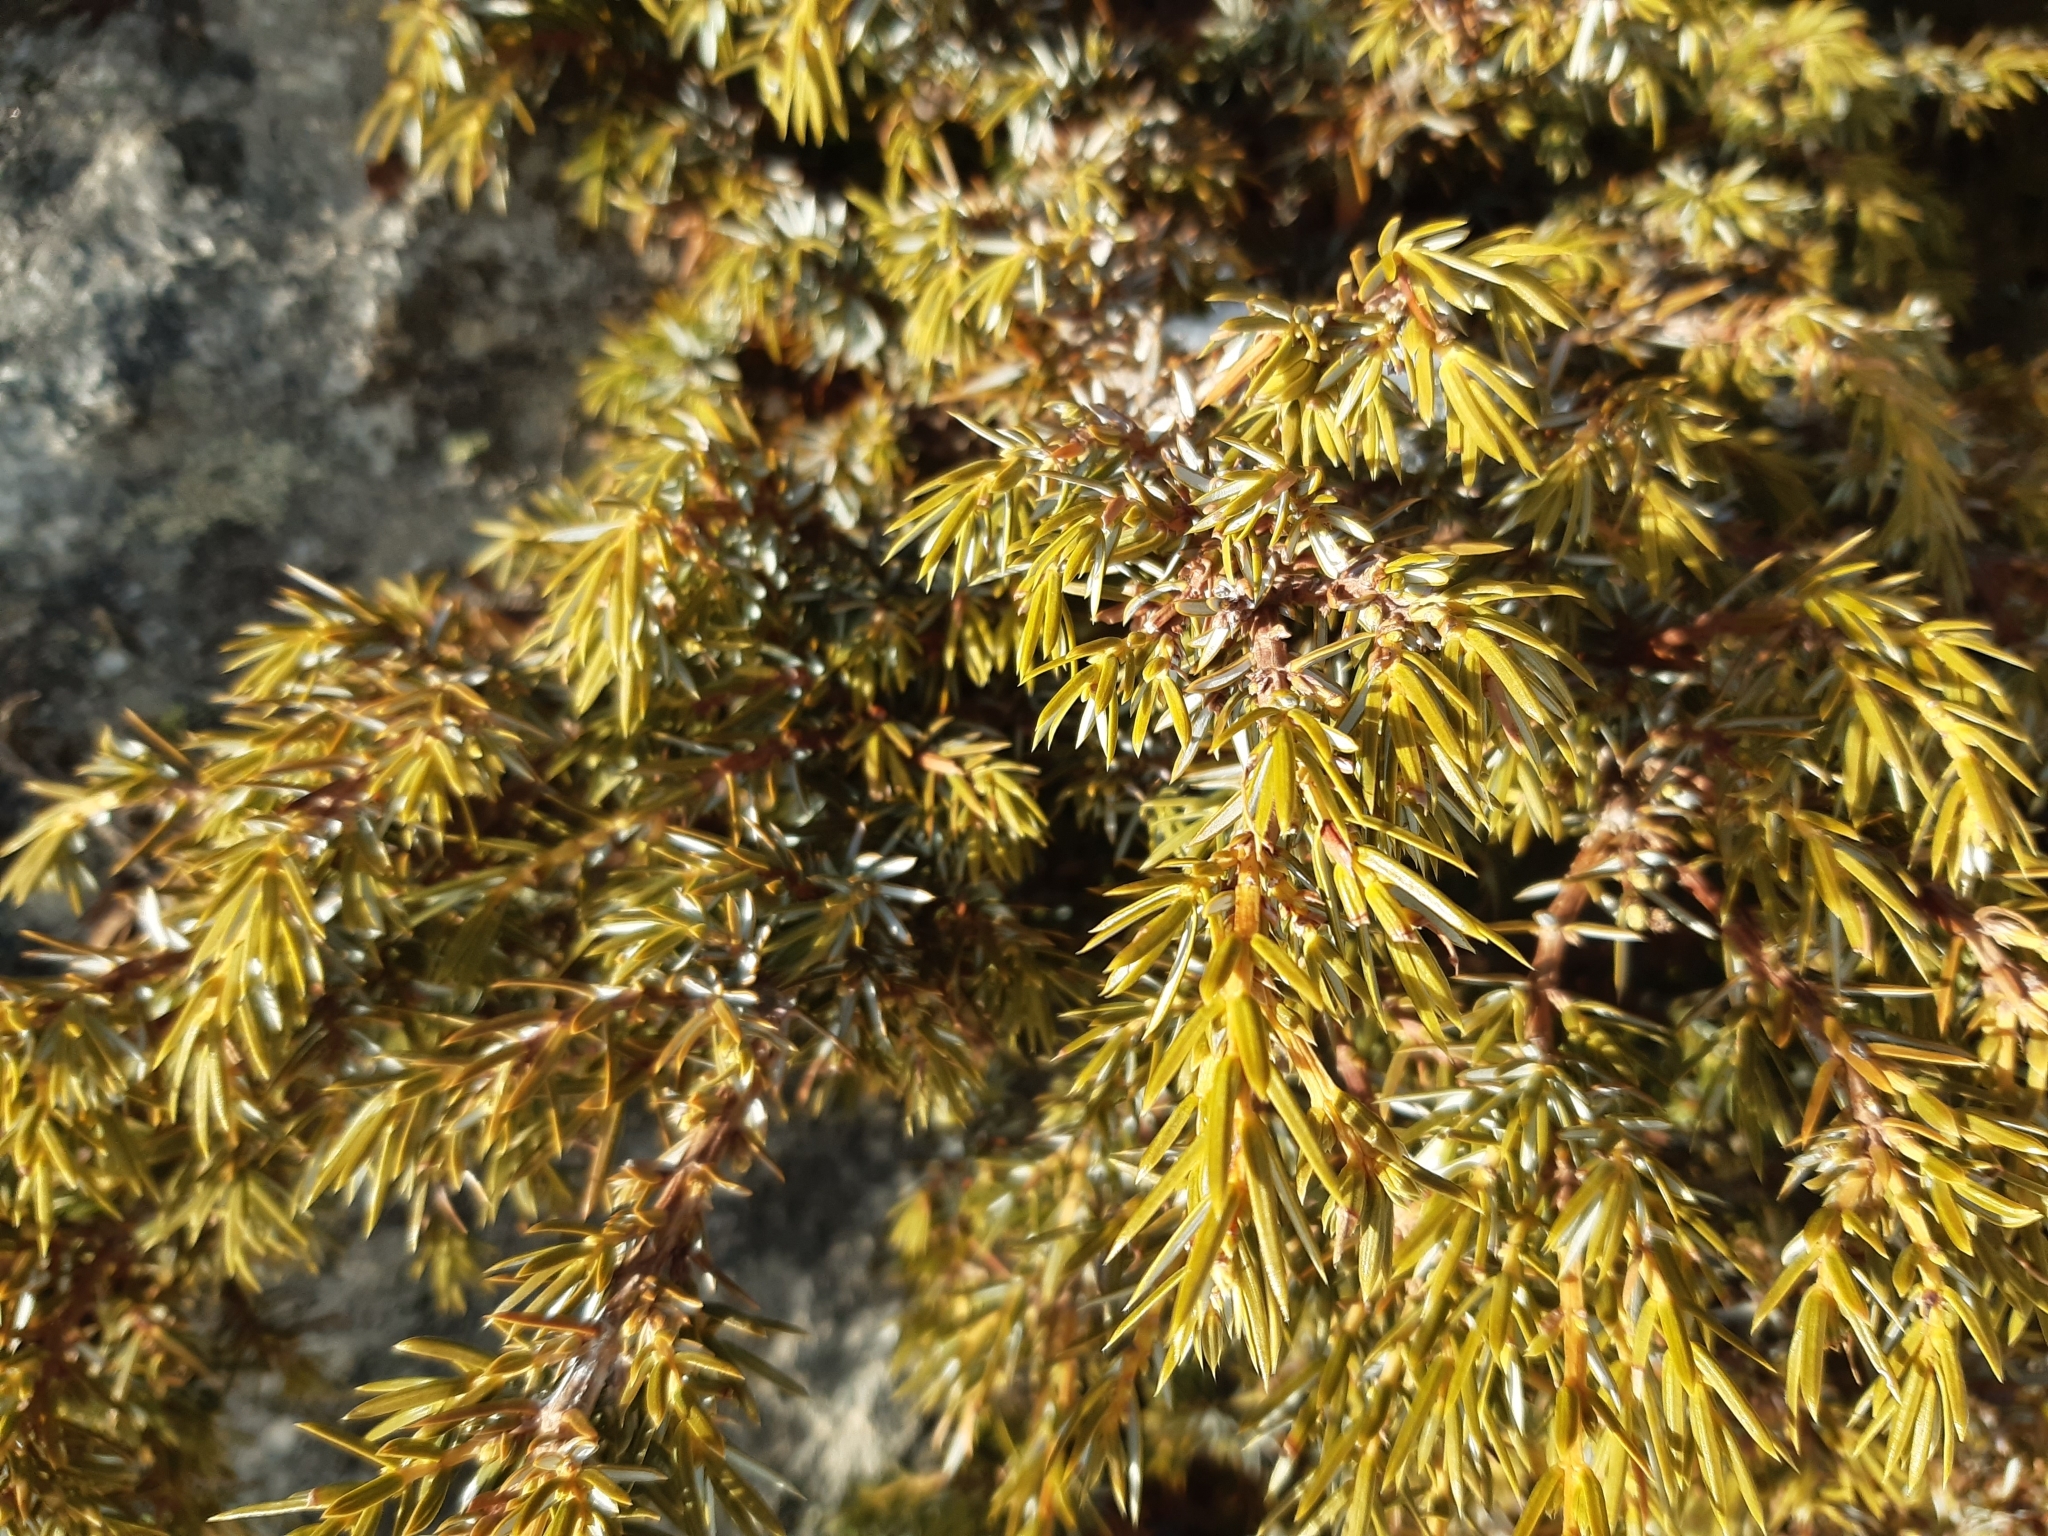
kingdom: Plantae
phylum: Tracheophyta
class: Pinopsida
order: Pinales
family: Cupressaceae
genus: Juniperus
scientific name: Juniperus communis
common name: Common juniper
